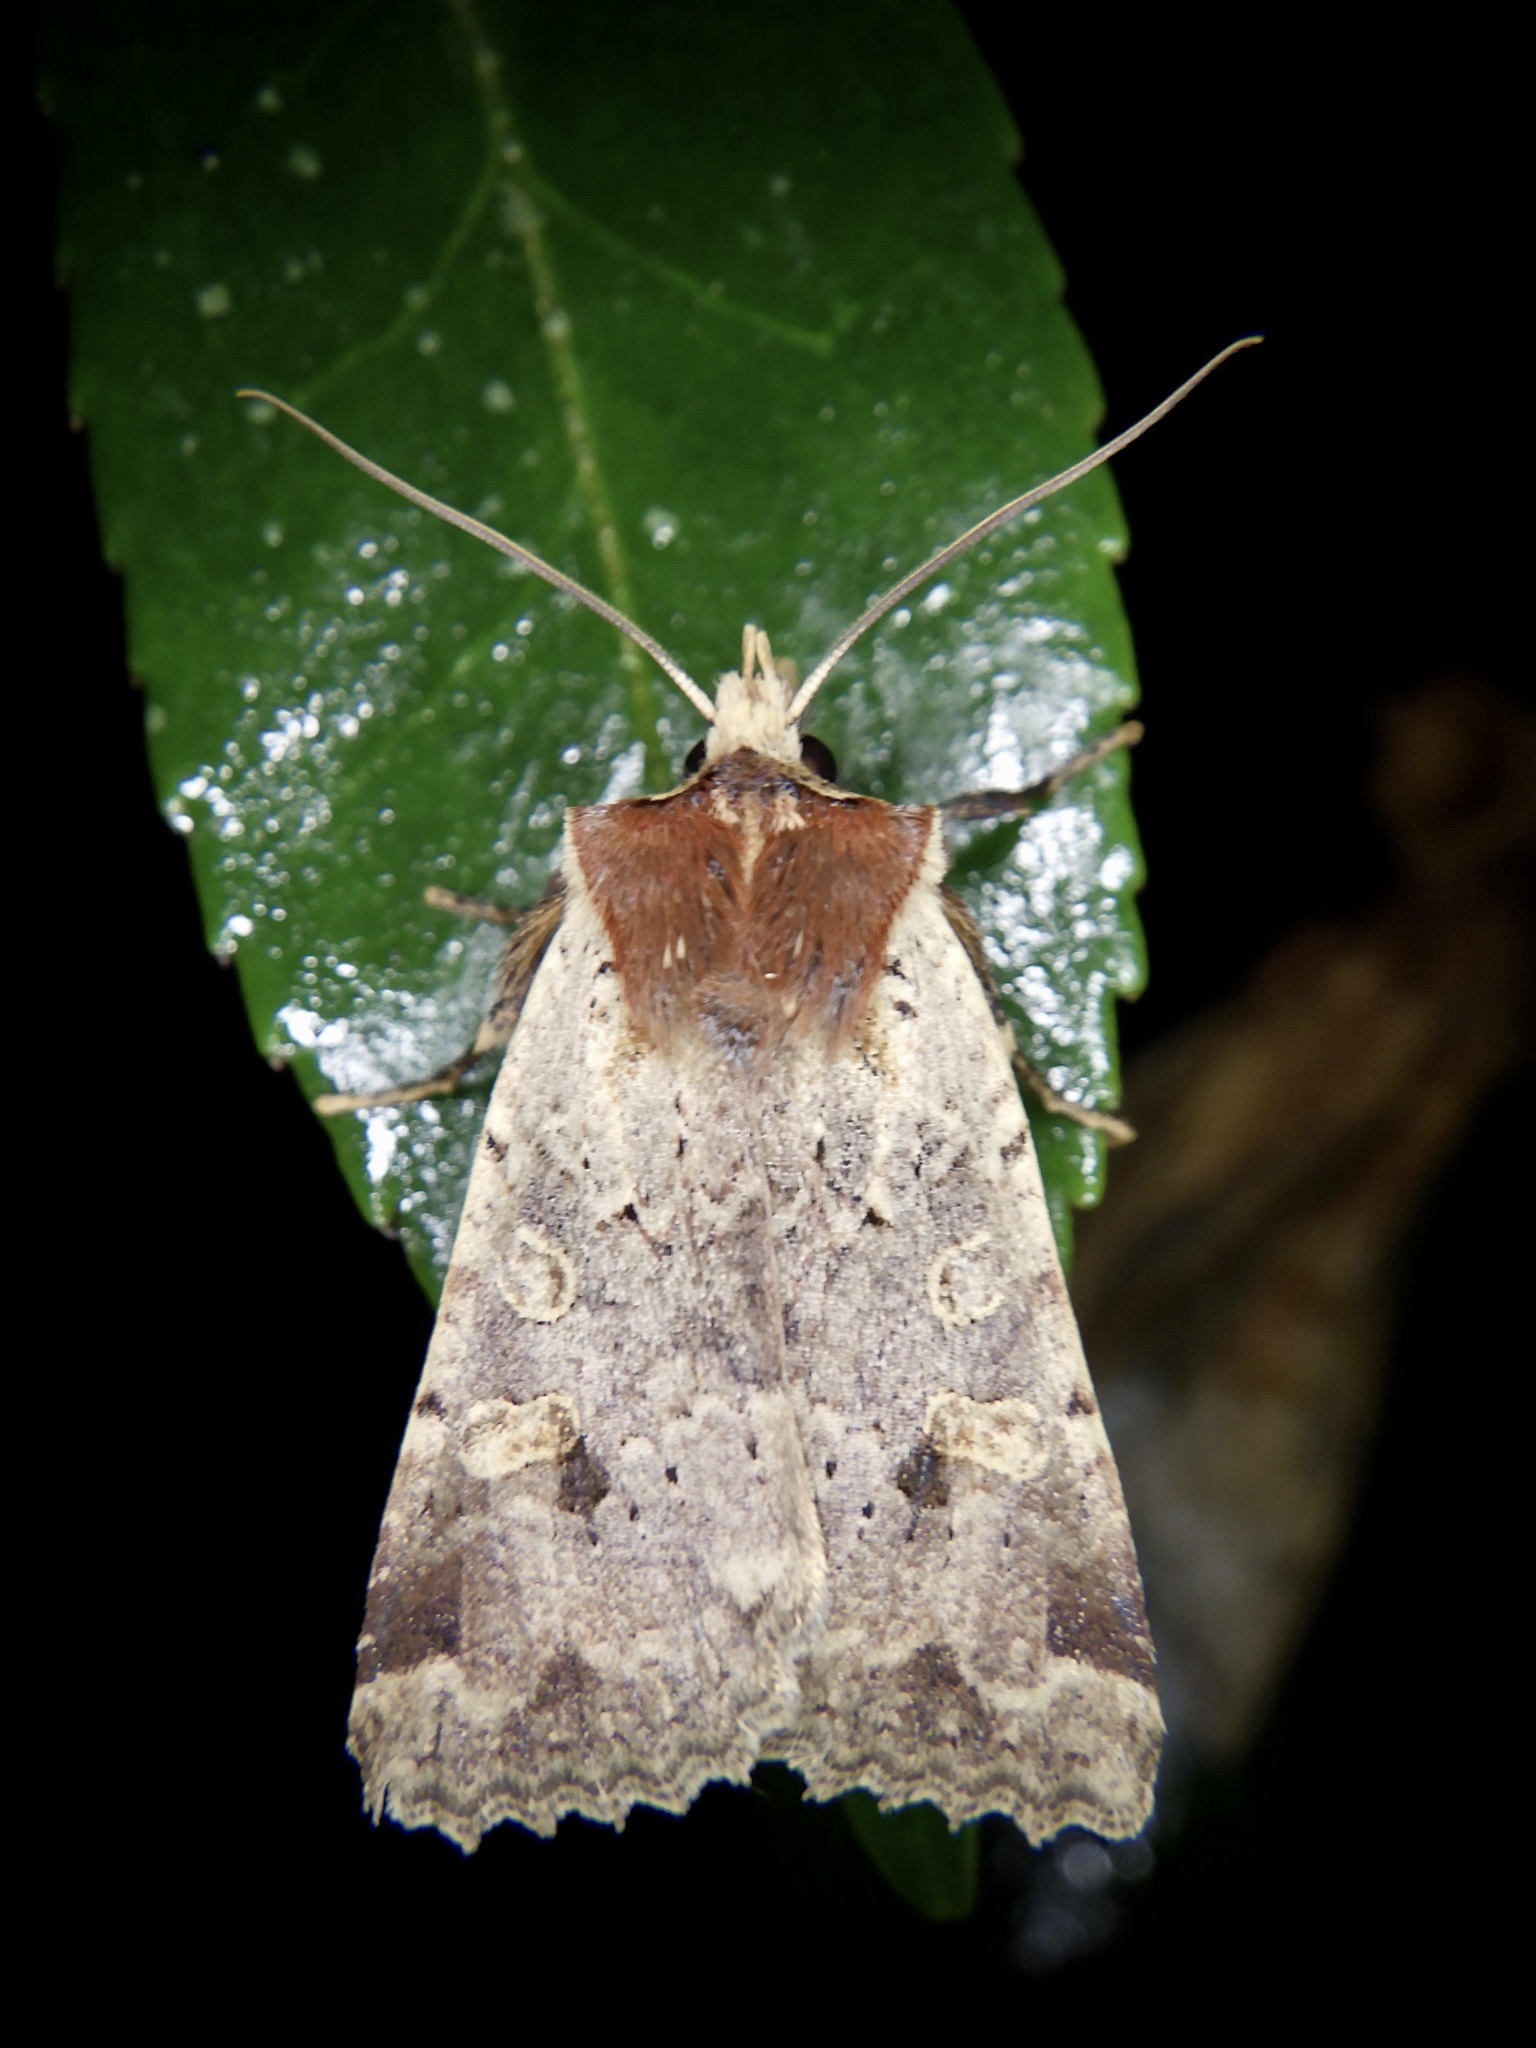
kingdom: Animalia
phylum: Arthropoda
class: Insecta
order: Lepidoptera
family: Noctuidae
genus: Rhynchaglaea
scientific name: Rhynchaglaea scitula
